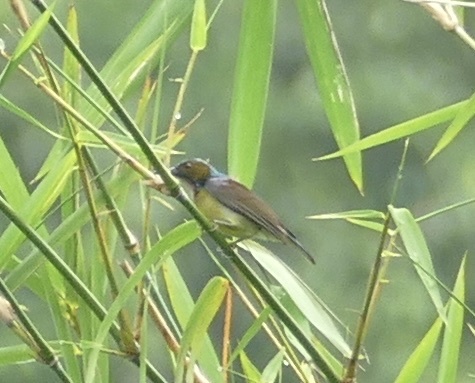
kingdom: Animalia
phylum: Chordata
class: Aves
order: Passeriformes
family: Nectariniidae
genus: Anthreptes
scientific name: Anthreptes malacensis
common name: Brown-throated sunbird
